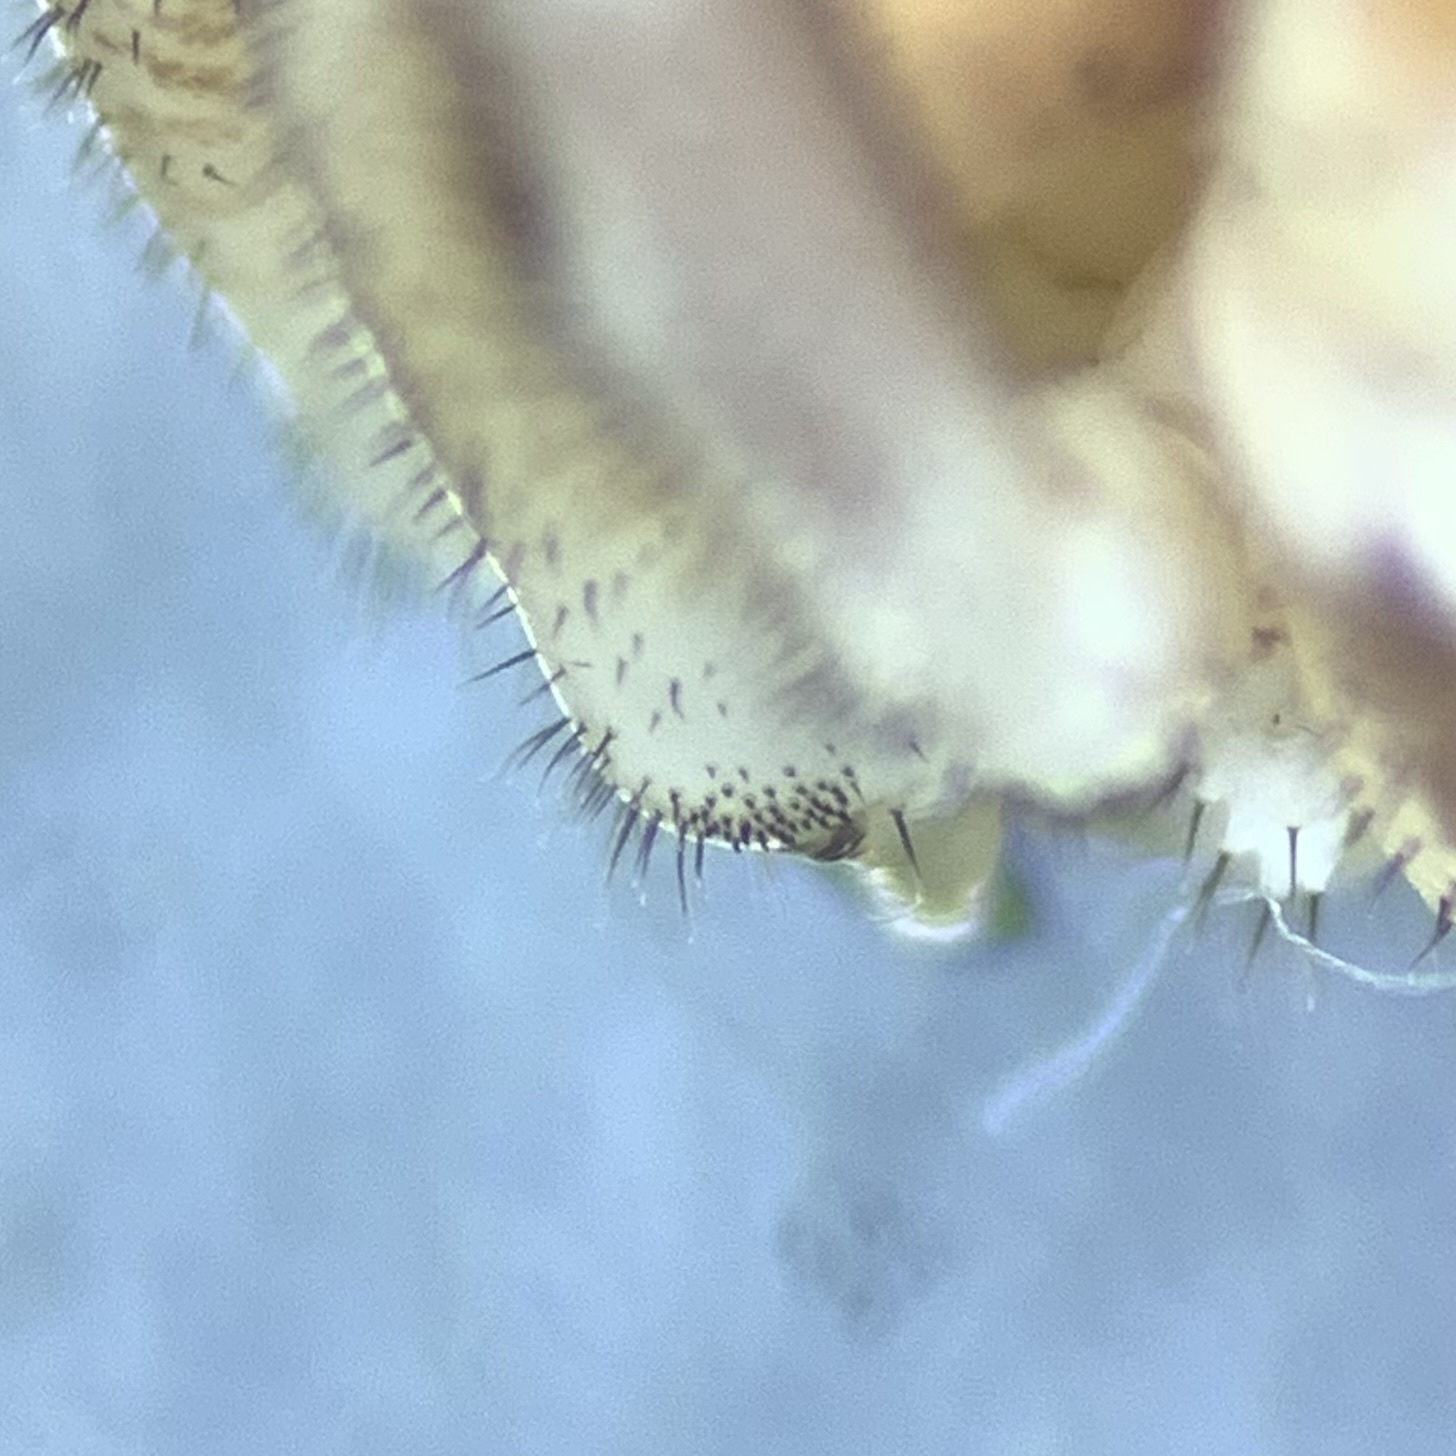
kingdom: Animalia
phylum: Arthropoda
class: Arachnida
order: Opiliones
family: Phalangiidae
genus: Dasylobus
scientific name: Dasylobus graniferus
